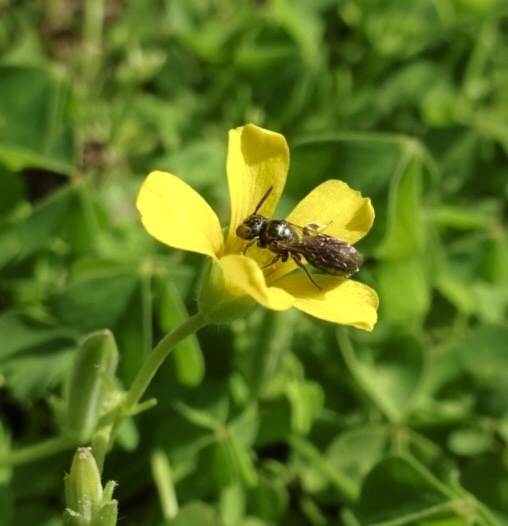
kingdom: Animalia
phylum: Arthropoda
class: Insecta
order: Hymenoptera
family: Apidae
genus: Ceratina
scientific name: Ceratina strenua
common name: Nimble carpenter bee
